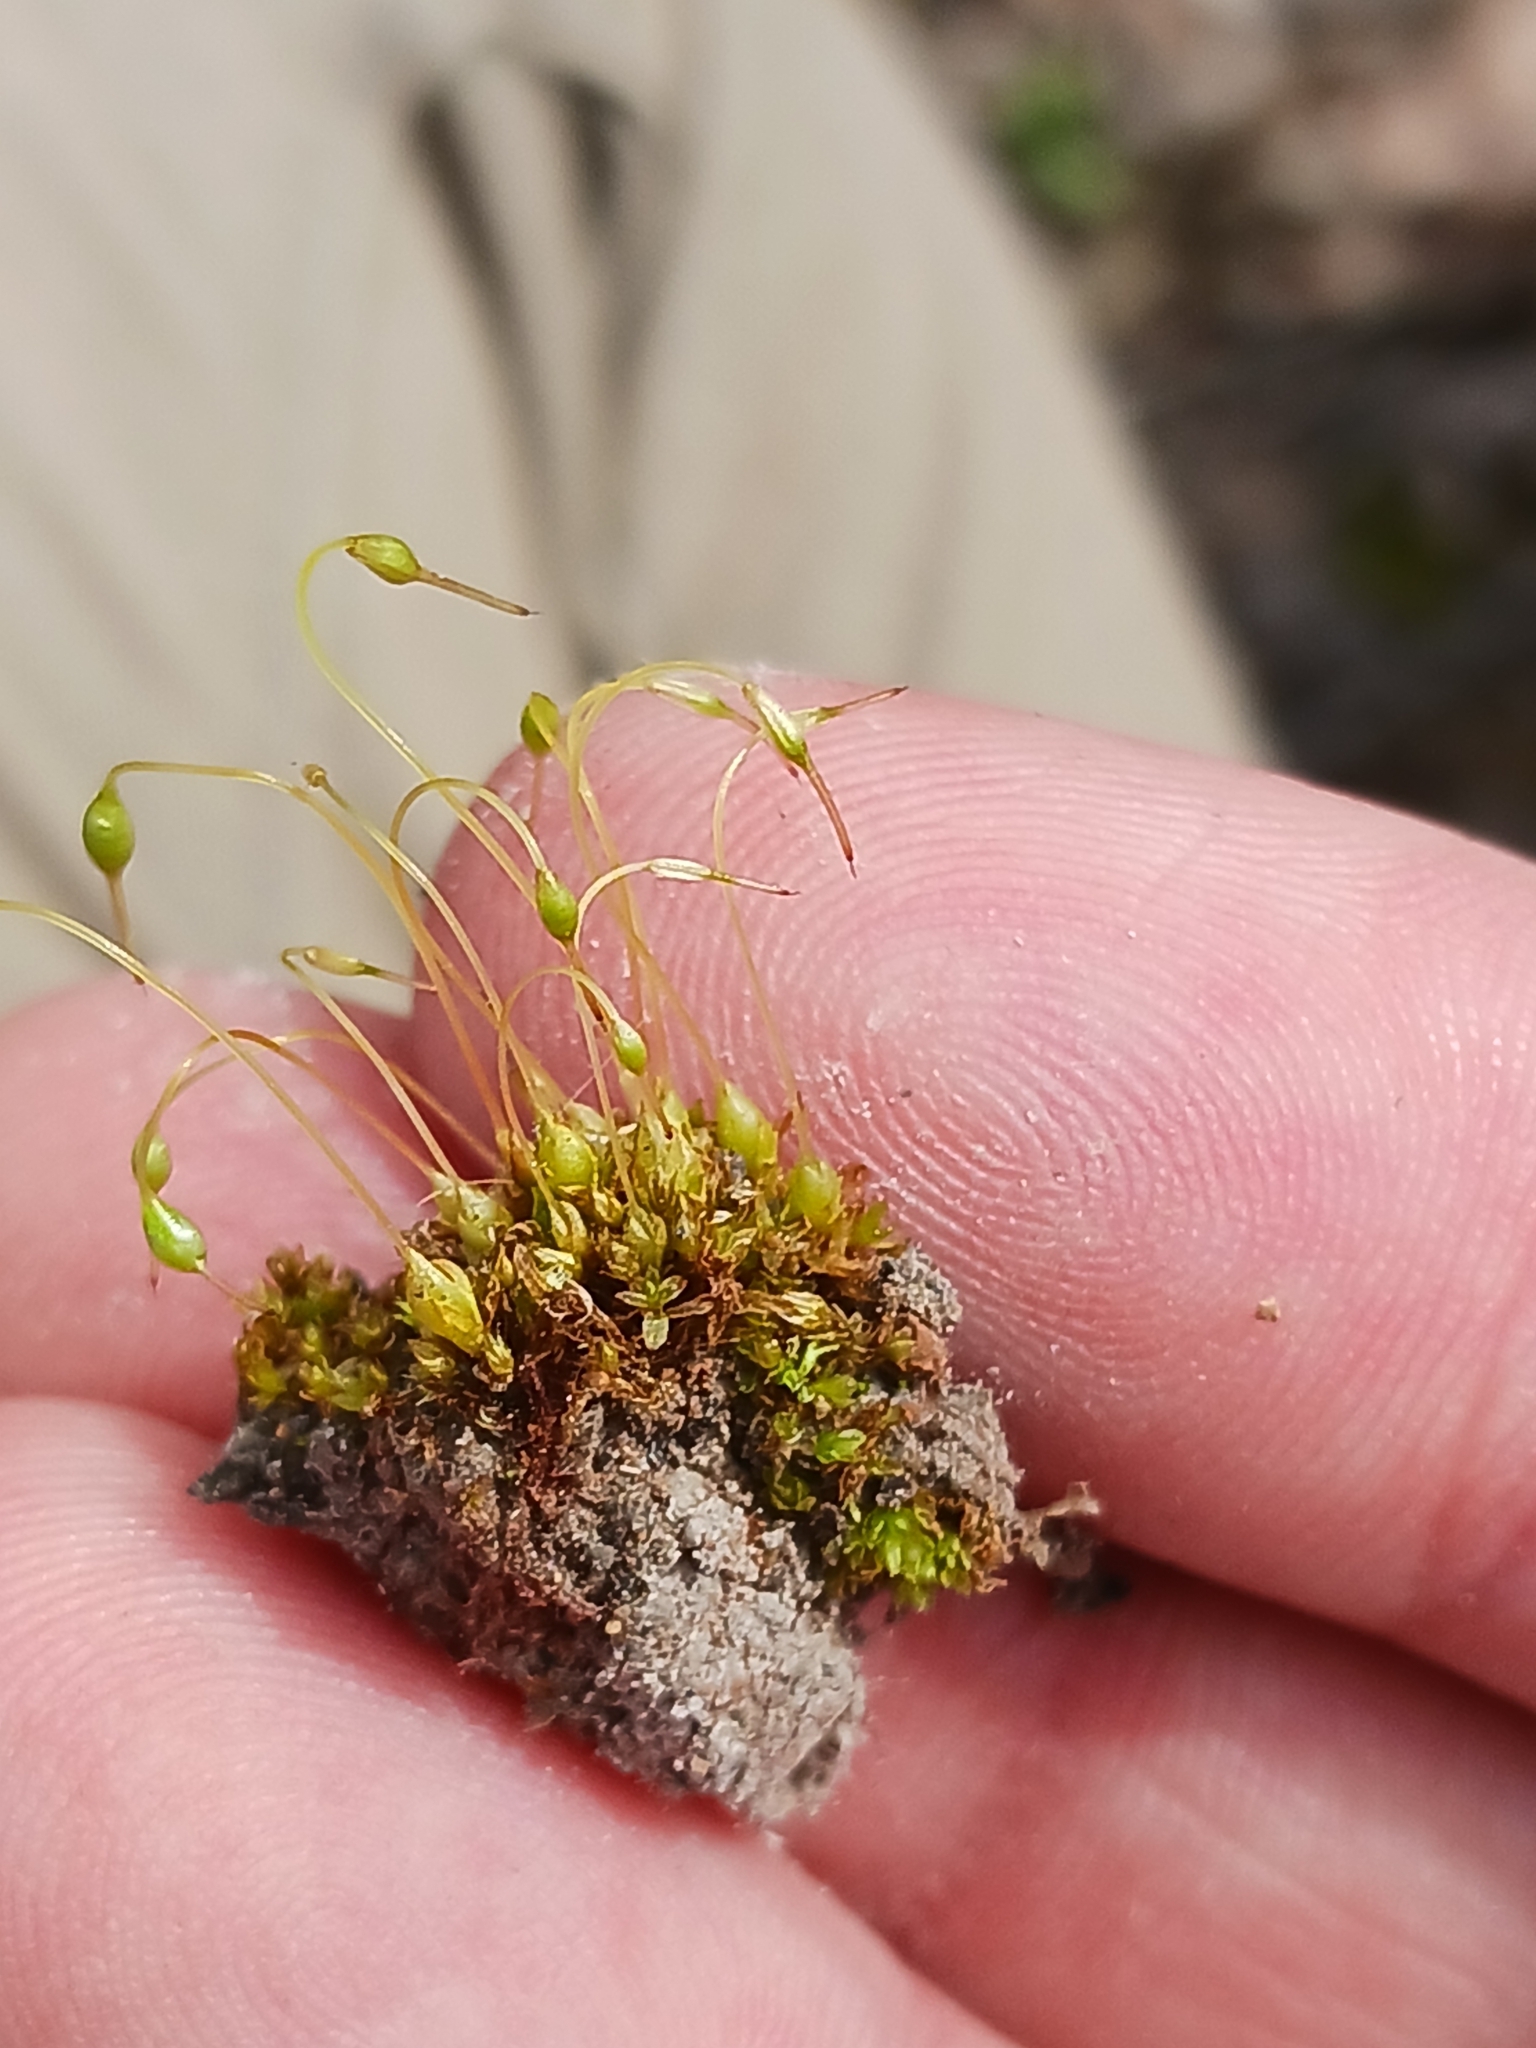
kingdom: Plantae
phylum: Bryophyta
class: Bryopsida
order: Funariales
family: Funariaceae
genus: Funaria
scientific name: Funaria hygrometrica
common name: Common cord moss
